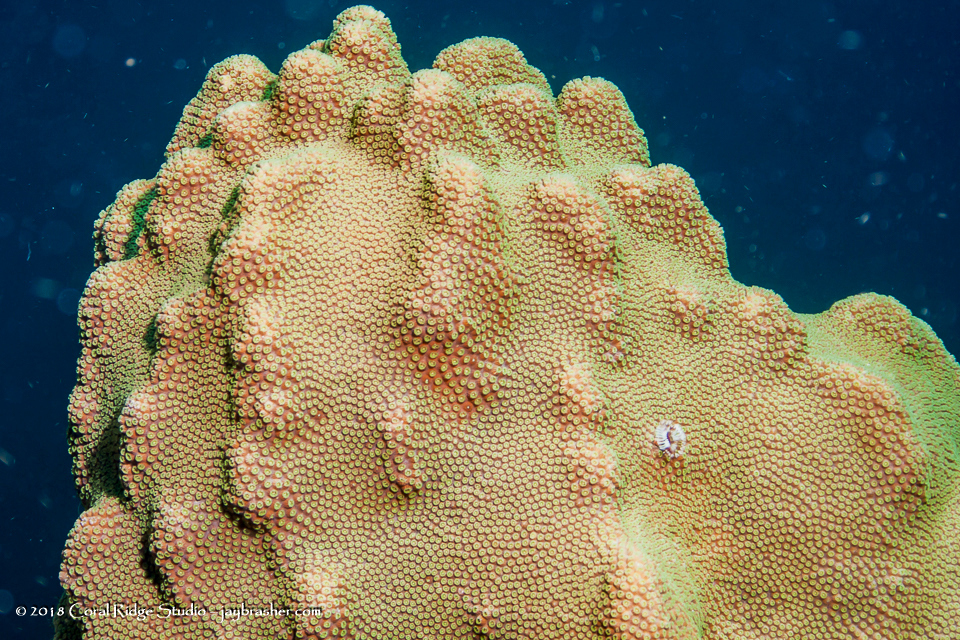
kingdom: Animalia
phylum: Cnidaria
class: Anthozoa
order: Scleractinia
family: Merulinidae
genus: Orbicella
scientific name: Orbicella faveolata
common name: Mountainous star coral
